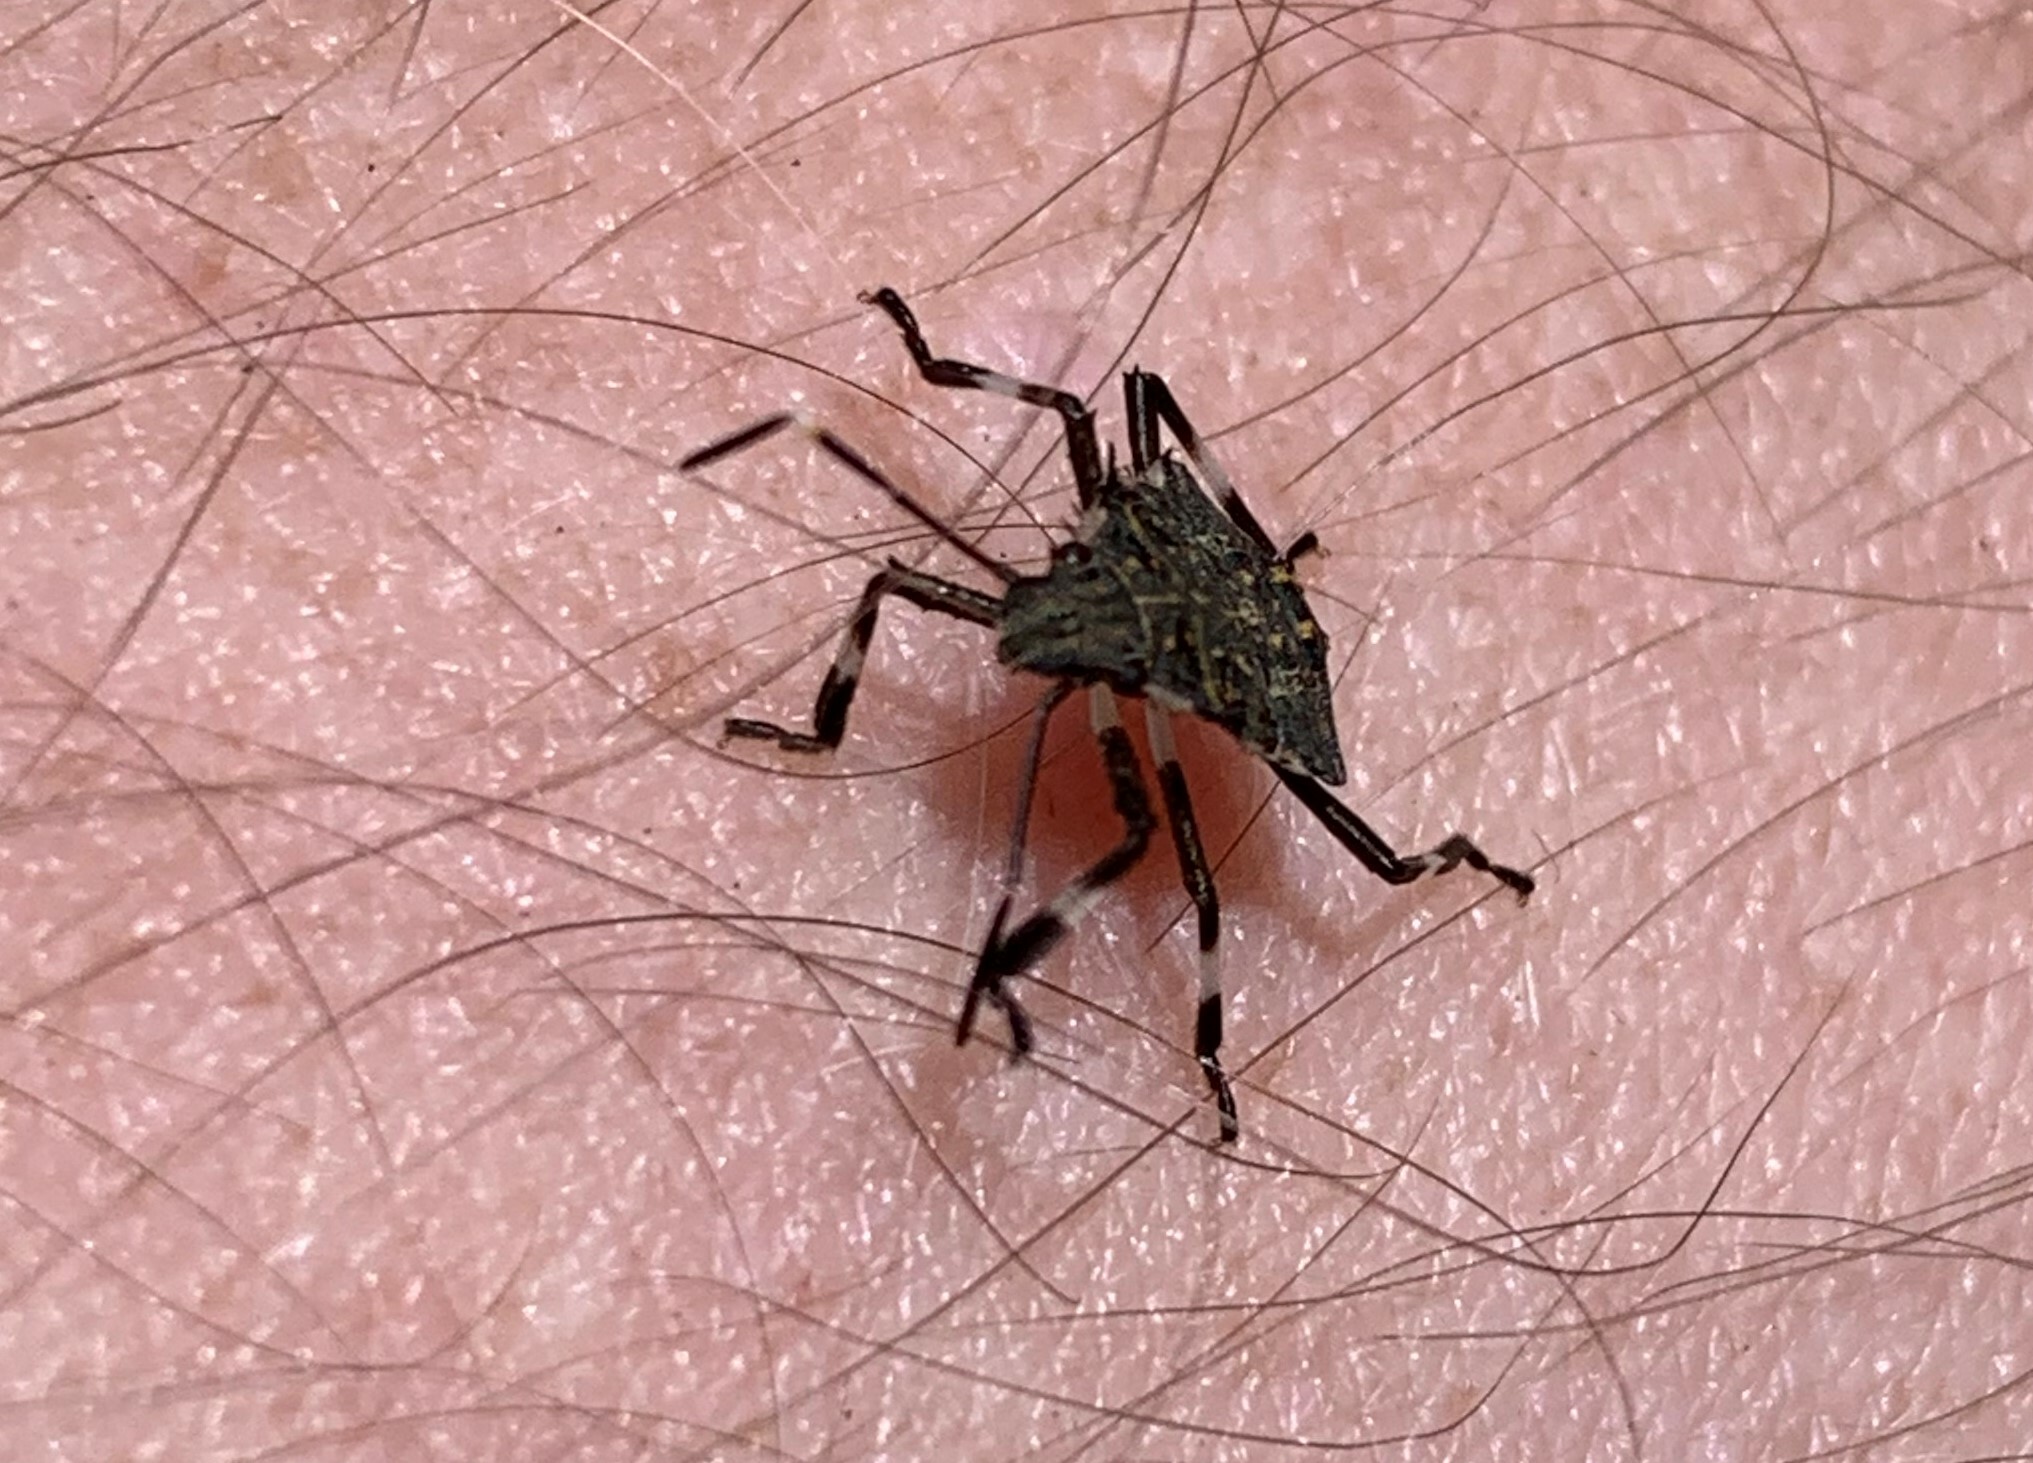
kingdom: Animalia
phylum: Arthropoda
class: Insecta
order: Hemiptera
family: Pentatomidae
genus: Halyomorpha
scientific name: Halyomorpha halys
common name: Brown marmorated stink bug
